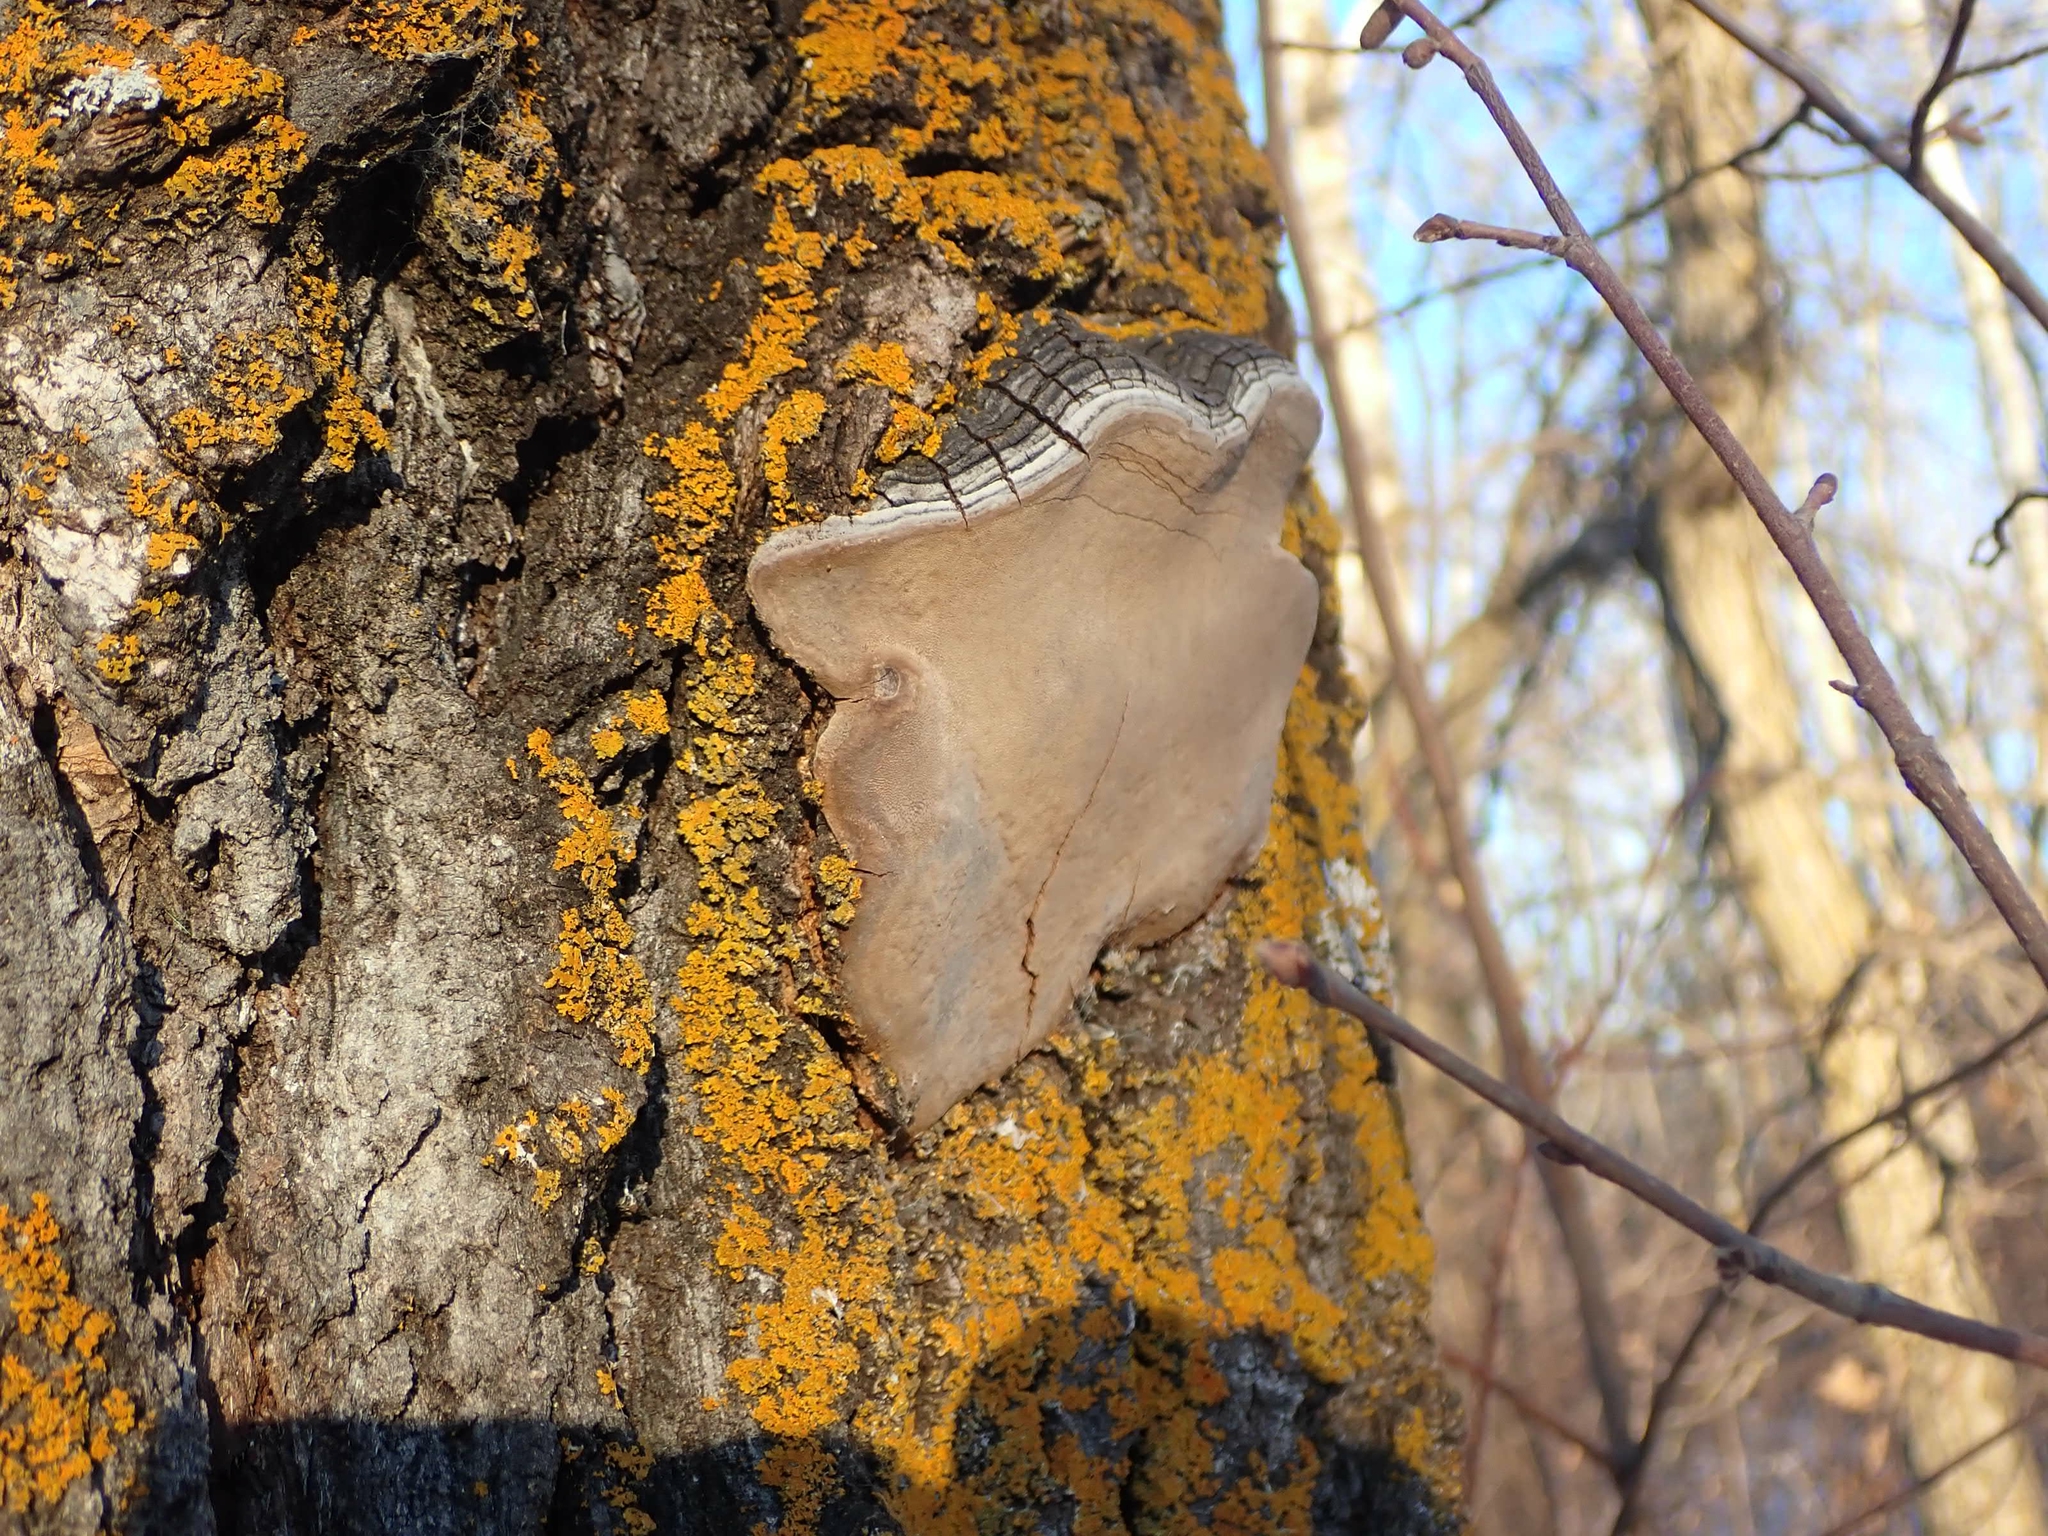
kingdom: Fungi
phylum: Basidiomycota
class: Agaricomycetes
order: Hymenochaetales
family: Hymenochaetaceae
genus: Phellinus
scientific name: Phellinus tremulae
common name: Aspen bracket
